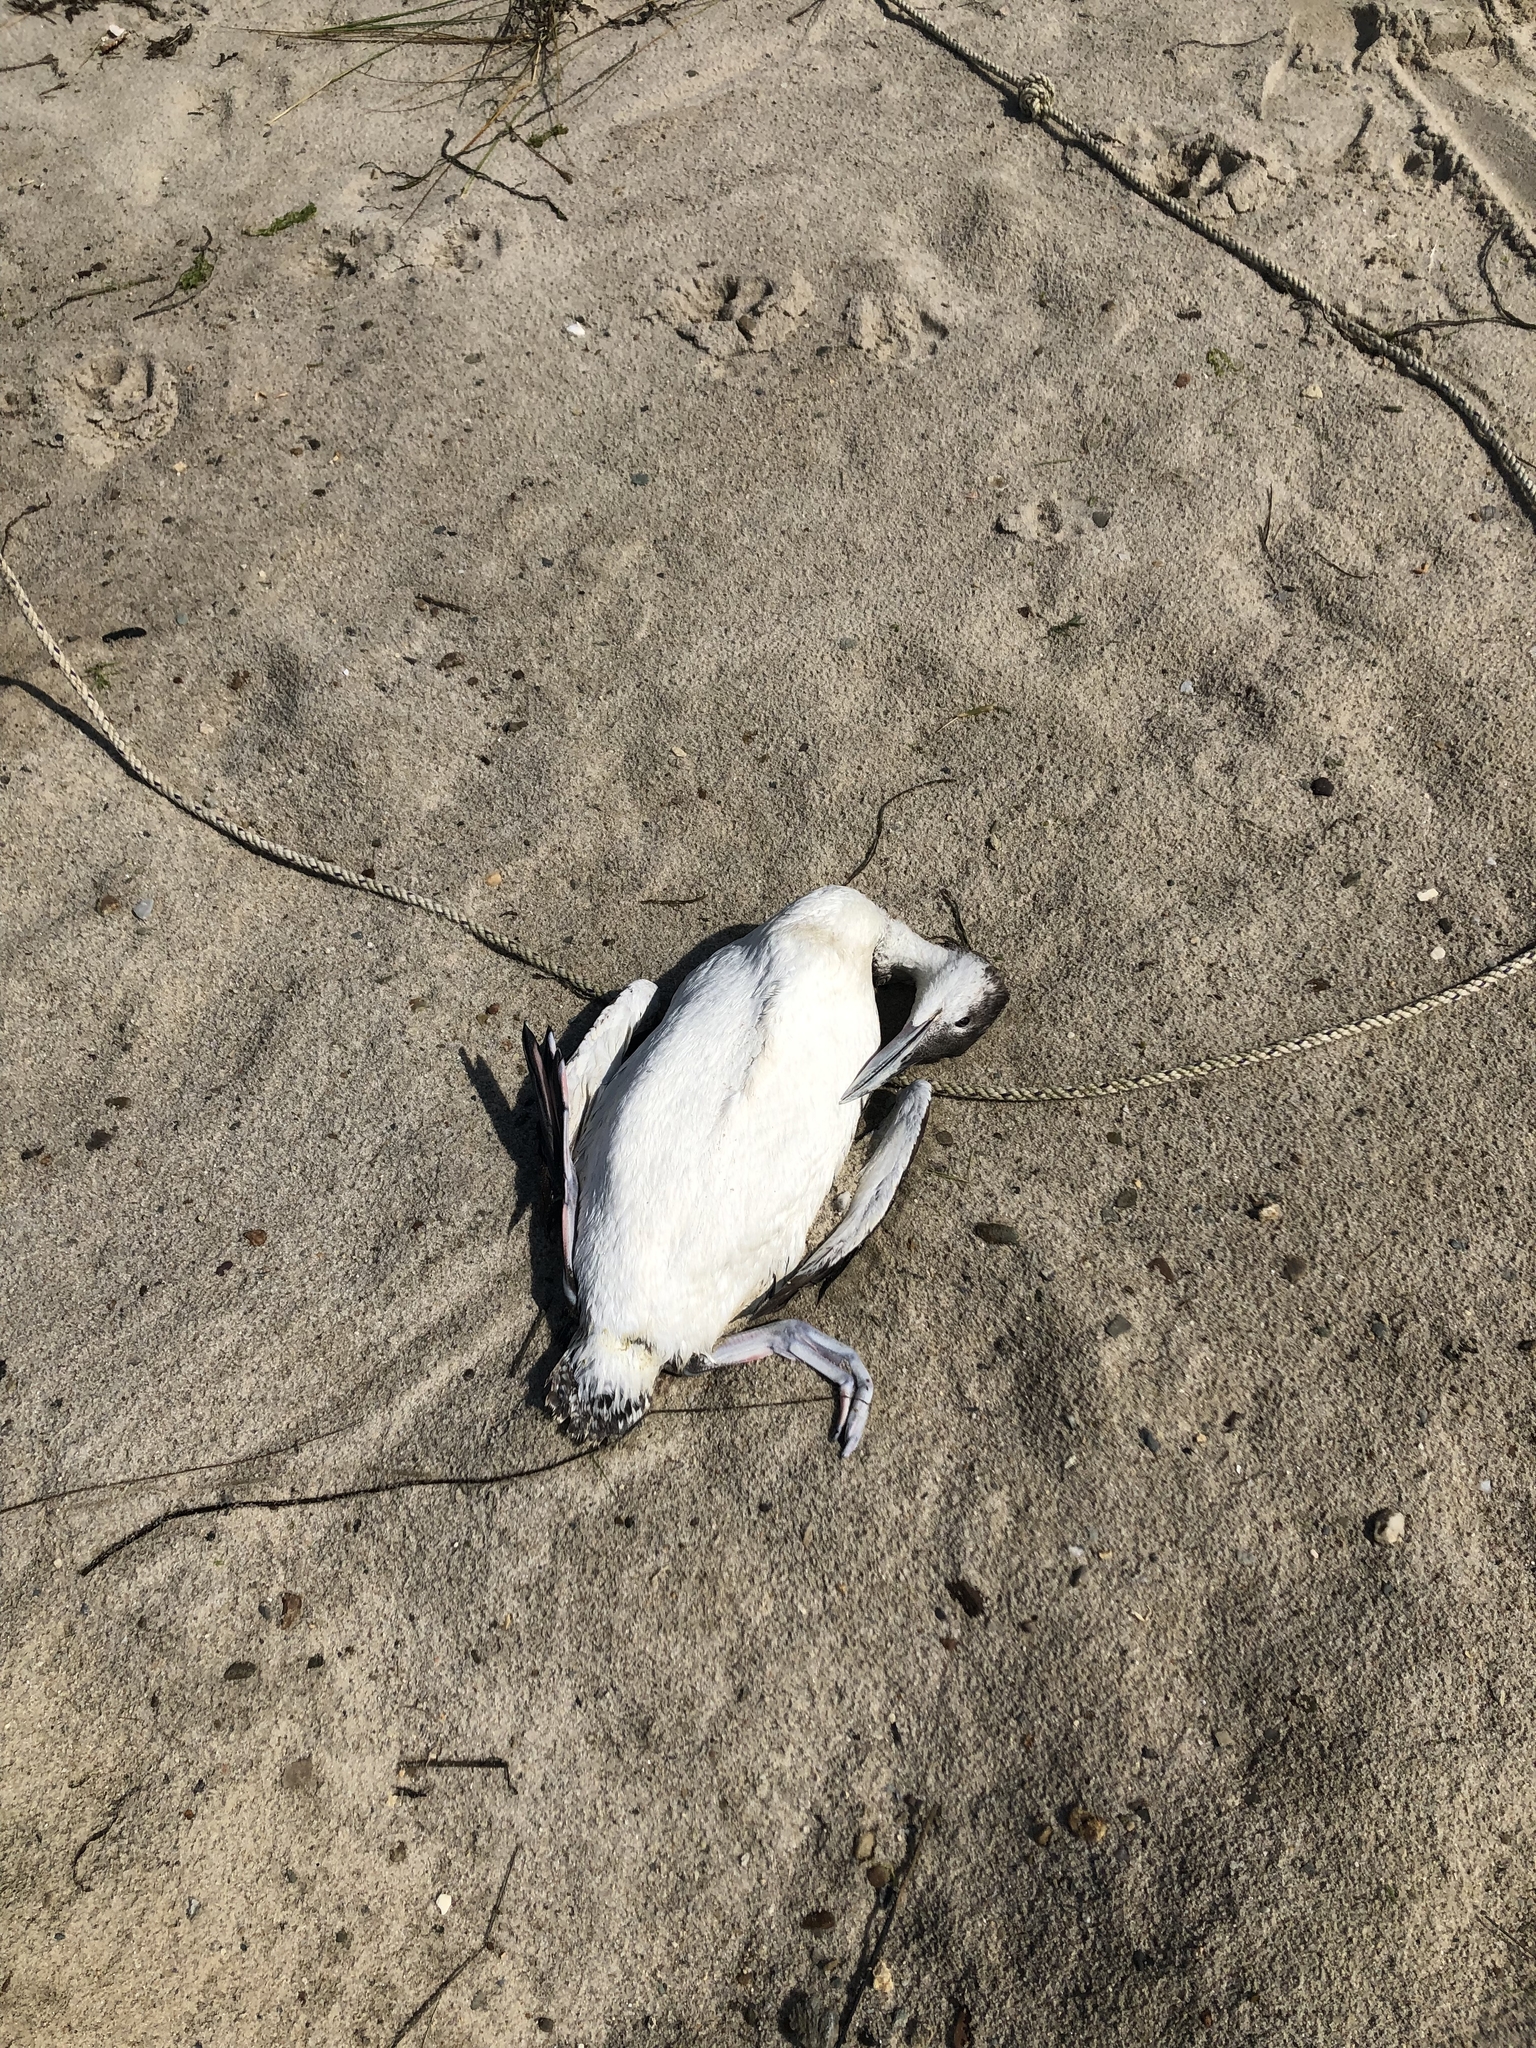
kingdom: Animalia
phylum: Chordata
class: Aves
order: Gaviiformes
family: Gaviidae
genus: Gavia
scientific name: Gavia immer
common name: Common loon
